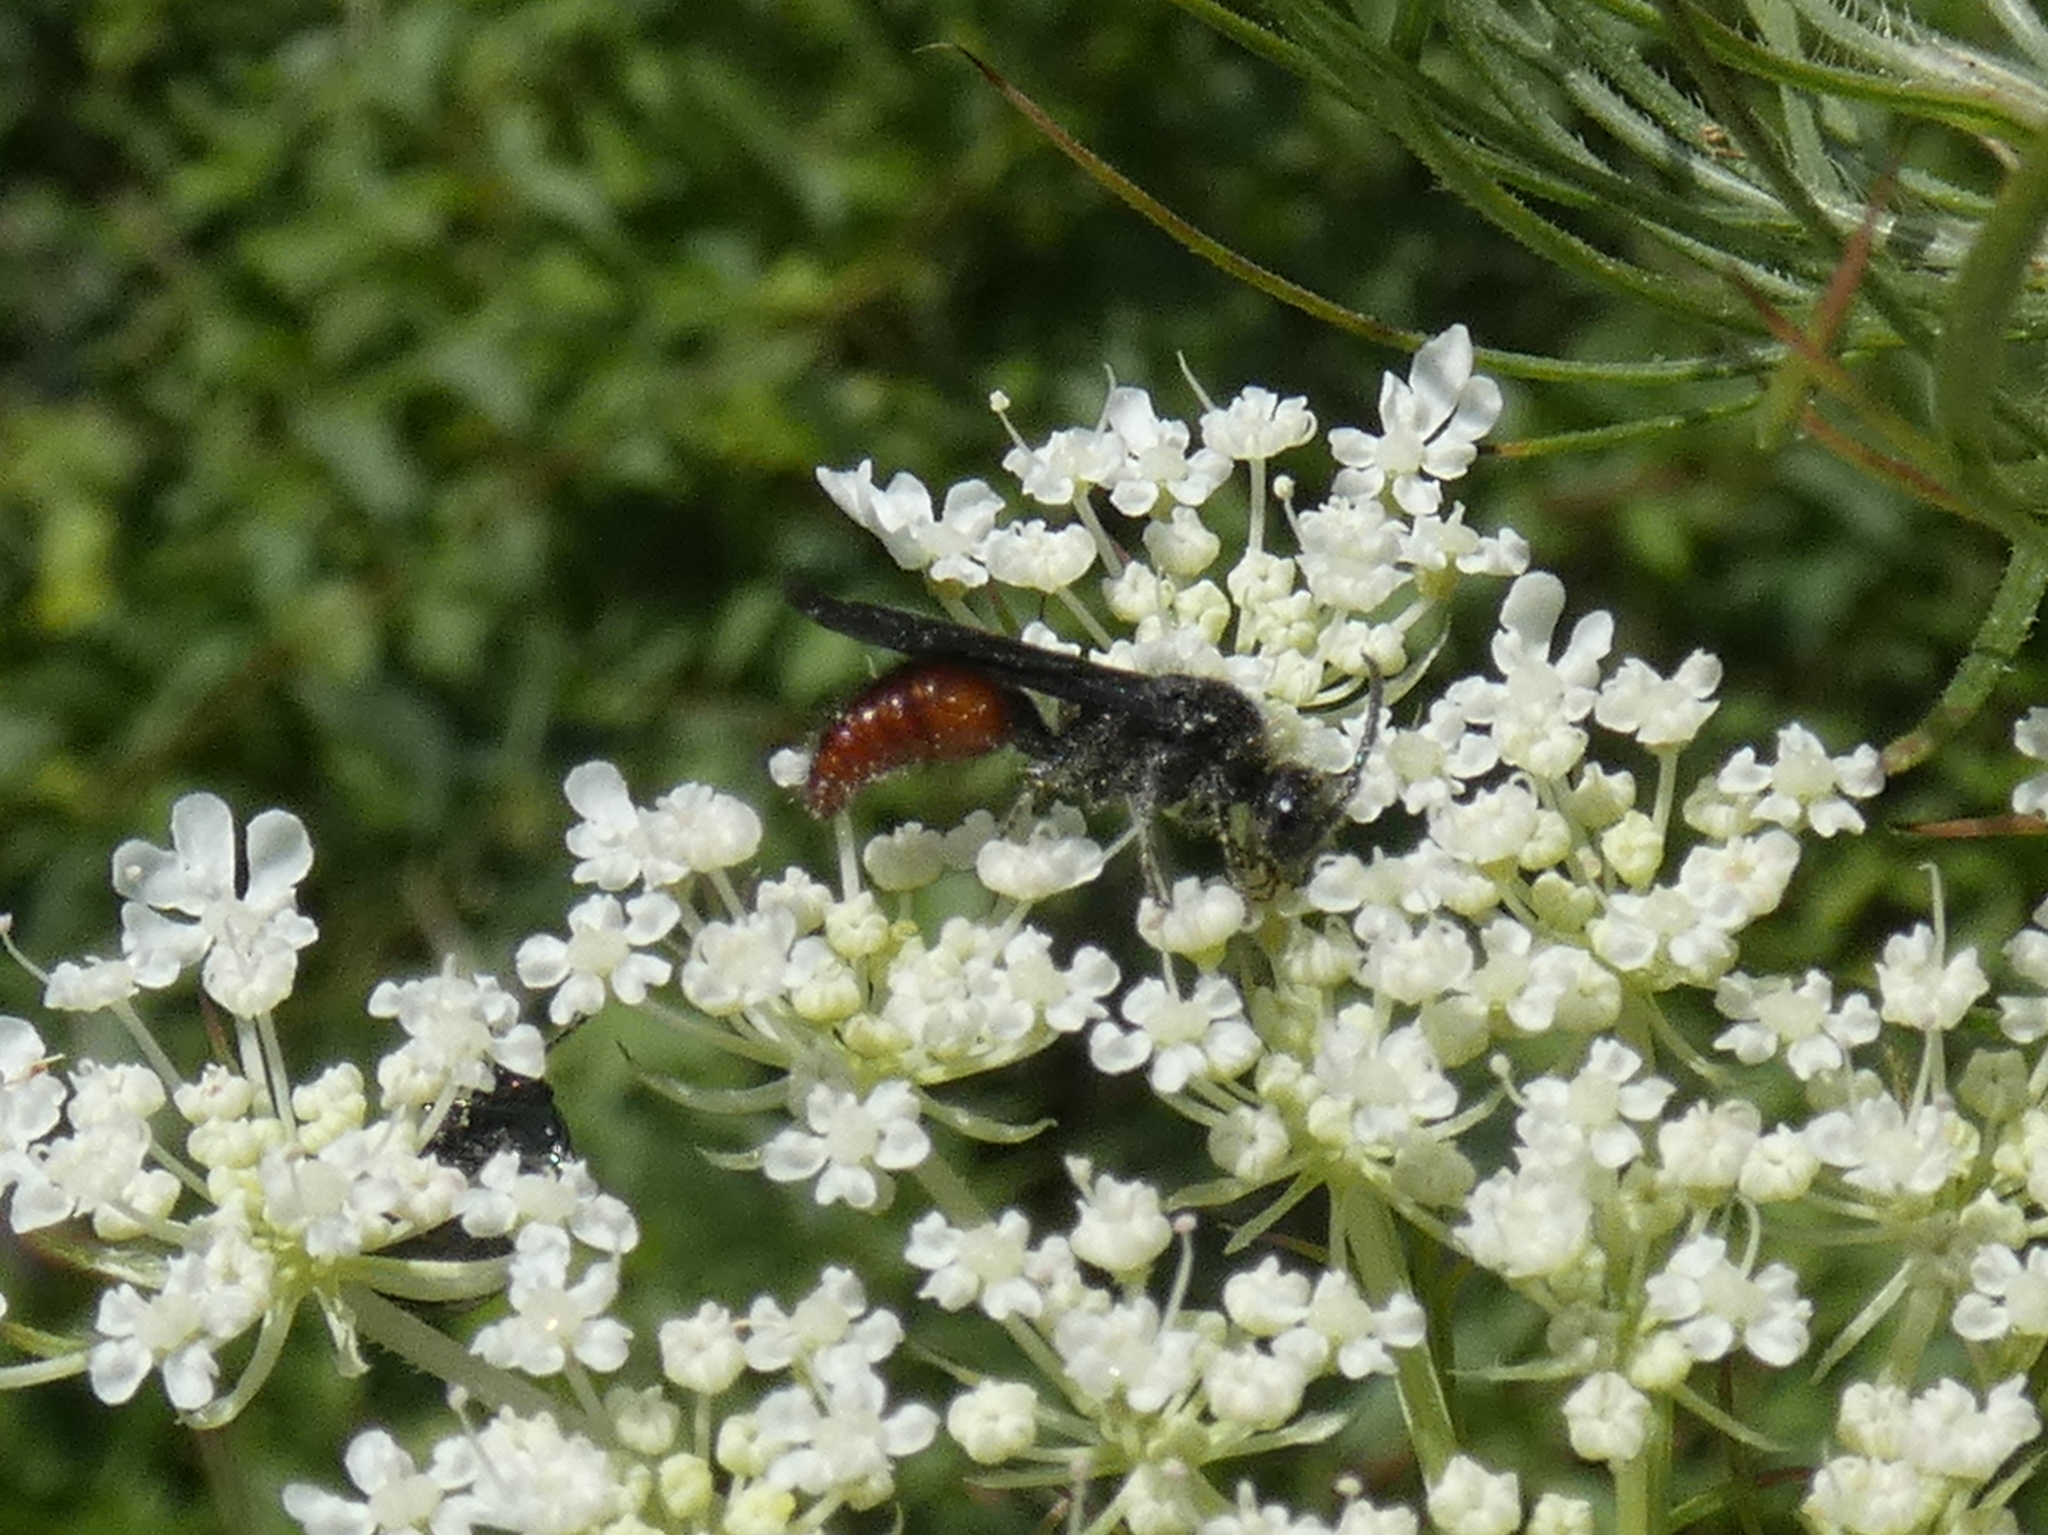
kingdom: Animalia
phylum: Arthropoda
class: Insecta
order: Hymenoptera
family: Mutillidae
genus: Timulla
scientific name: Timulla
